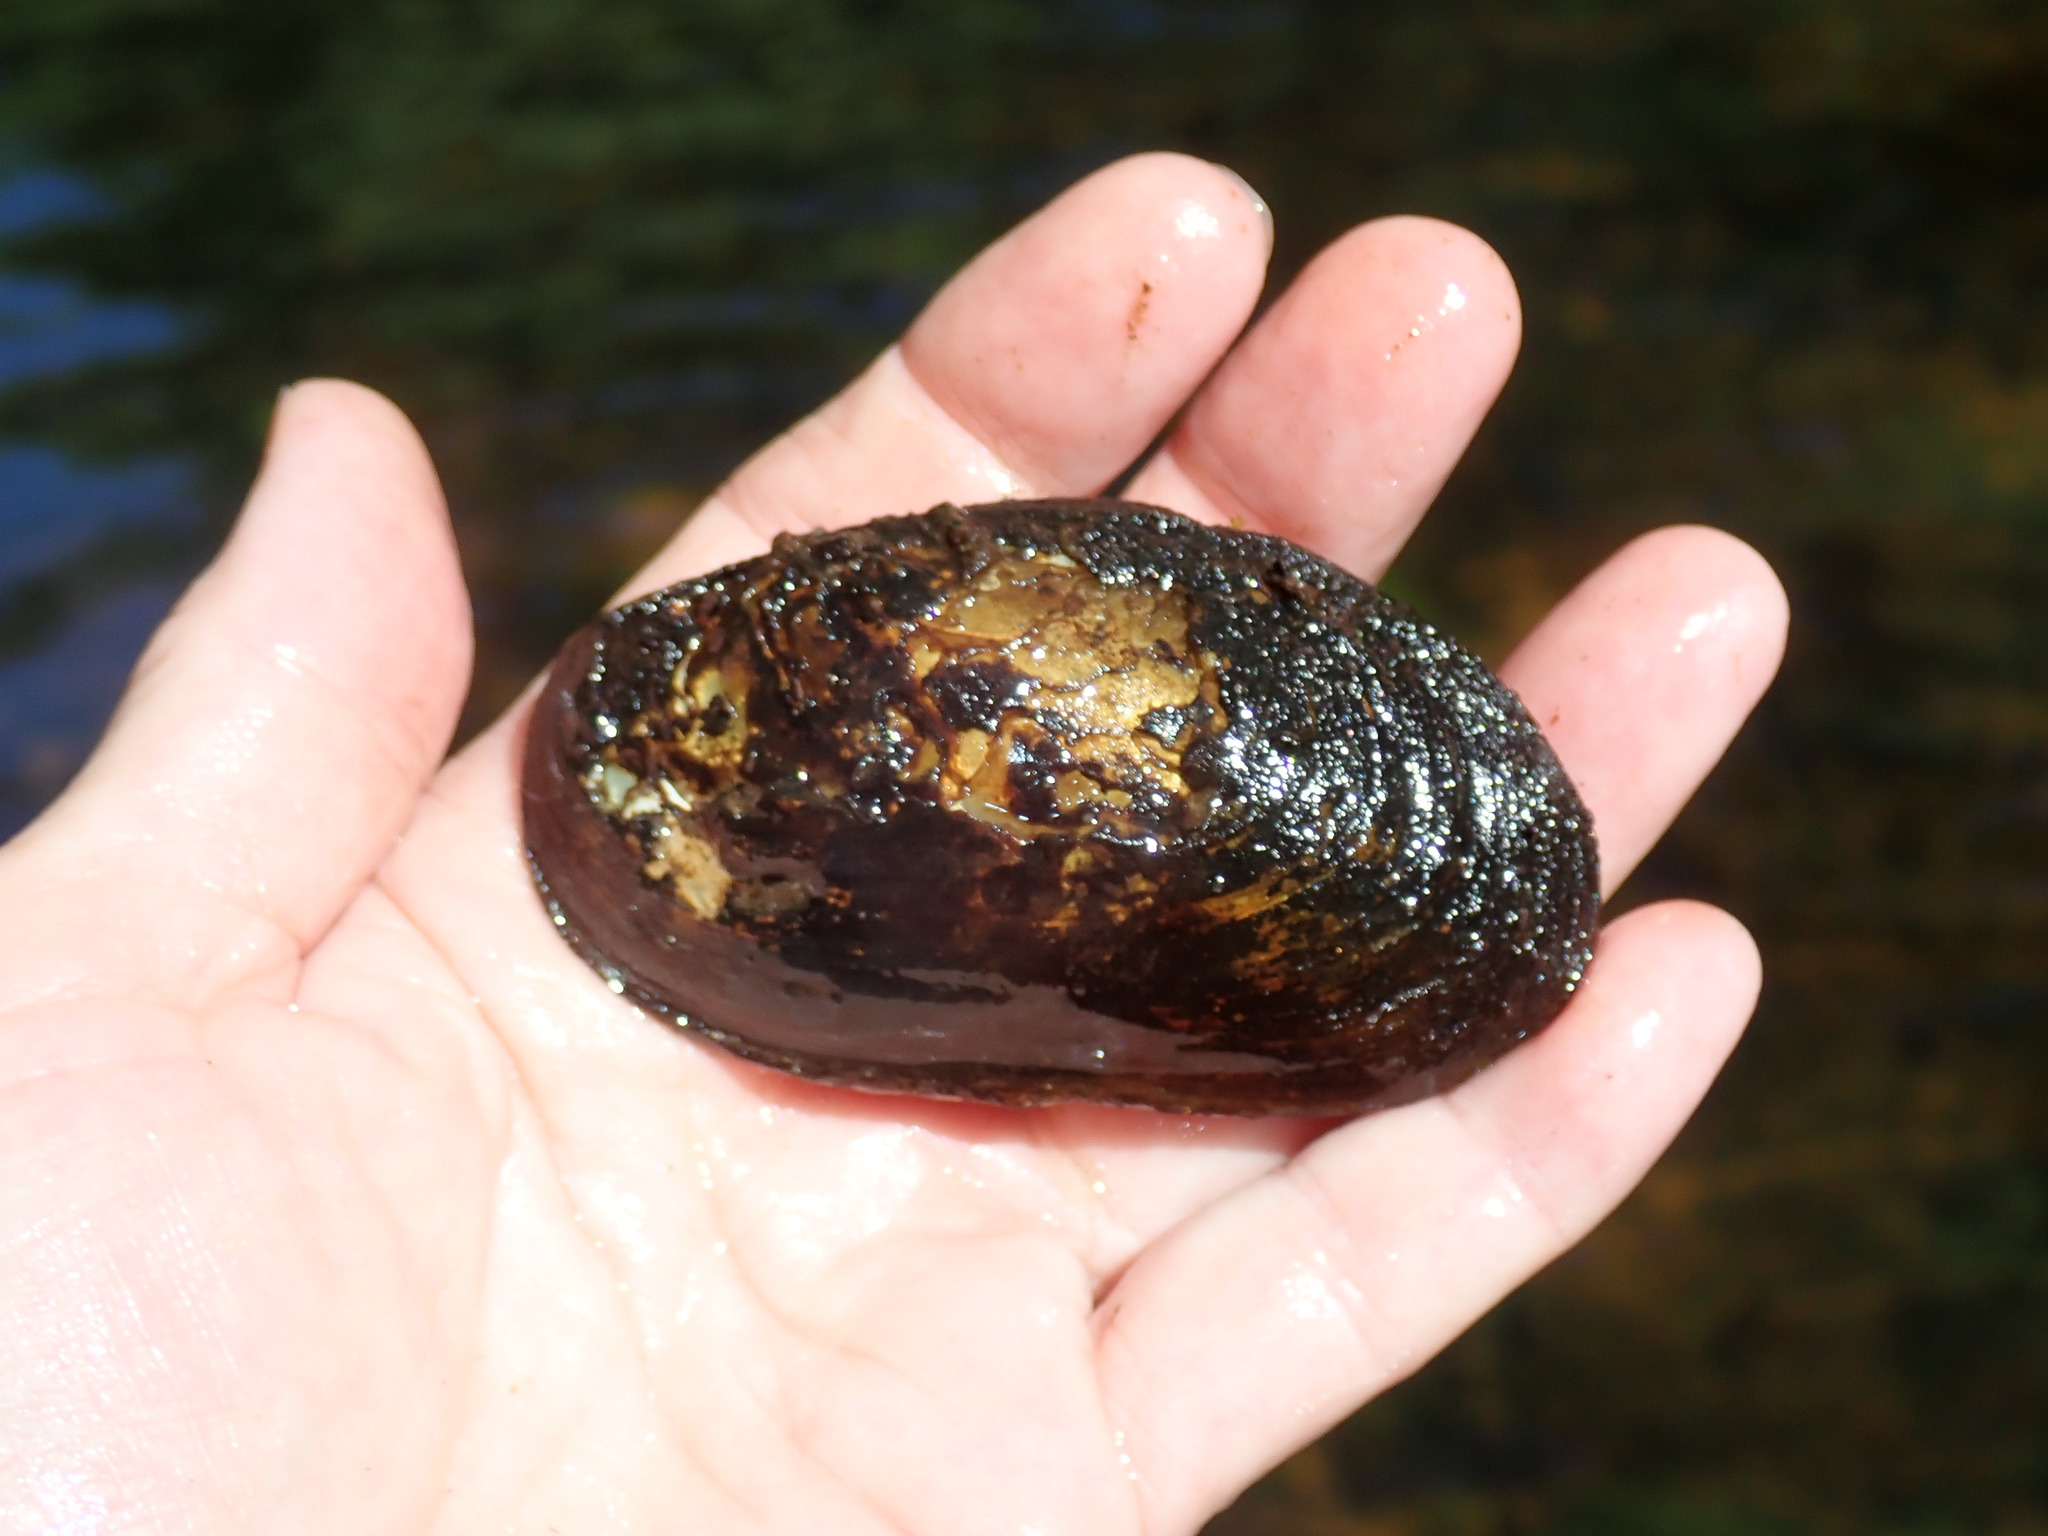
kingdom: Animalia
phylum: Mollusca
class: Bivalvia
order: Unionida
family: Unionidae
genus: Elliptio
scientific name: Elliptio complanata
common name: Eastern elliptio
